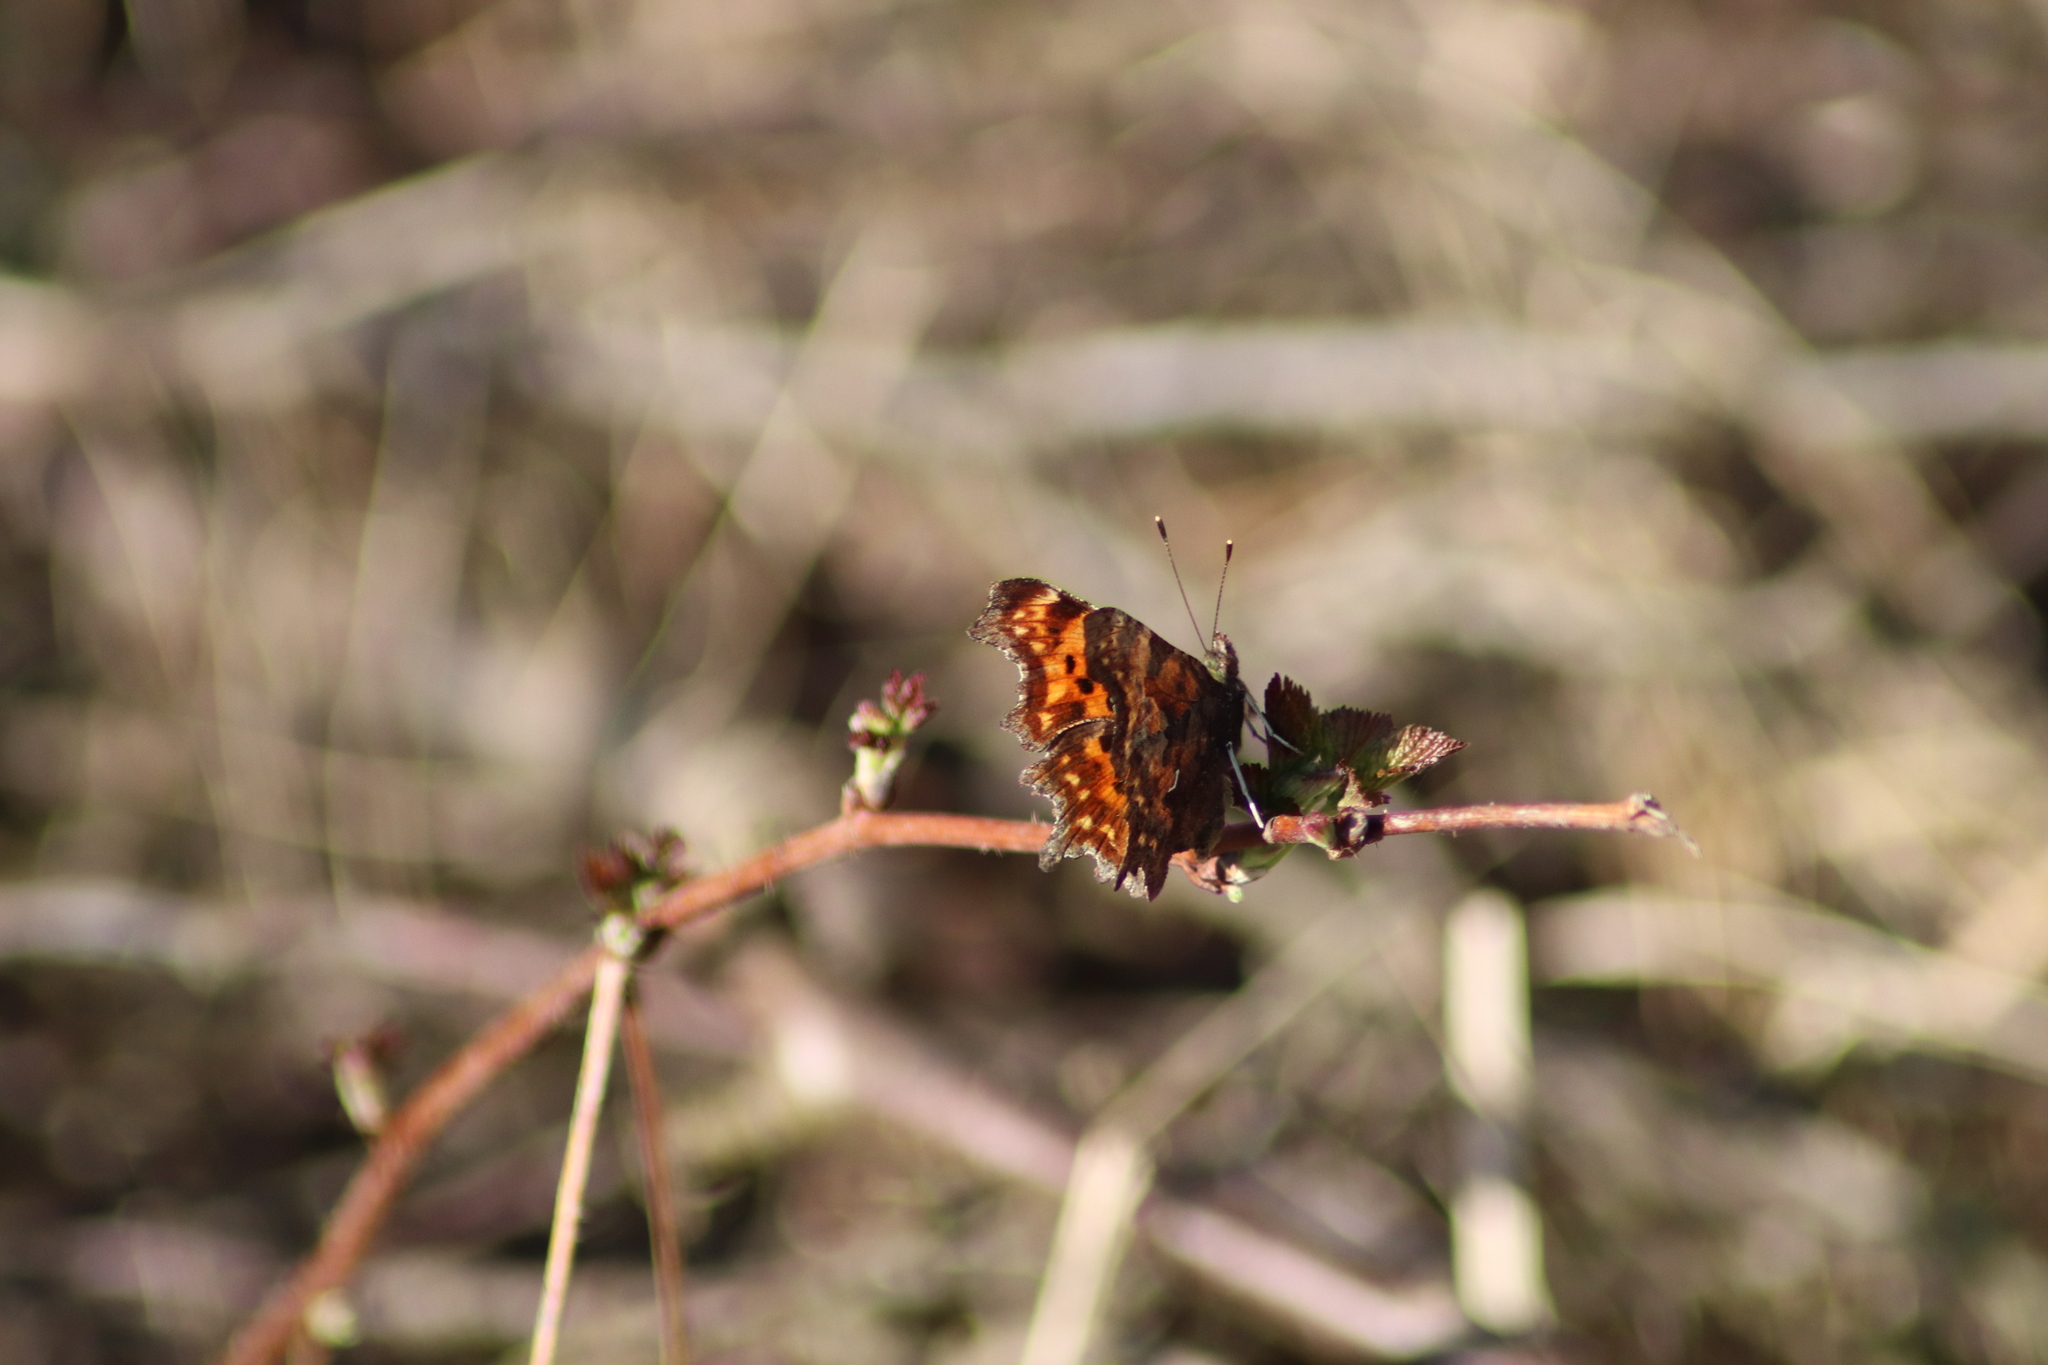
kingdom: Animalia
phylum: Arthropoda
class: Insecta
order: Lepidoptera
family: Nymphalidae
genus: Polygonia
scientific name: Polygonia c-album
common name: Comma
